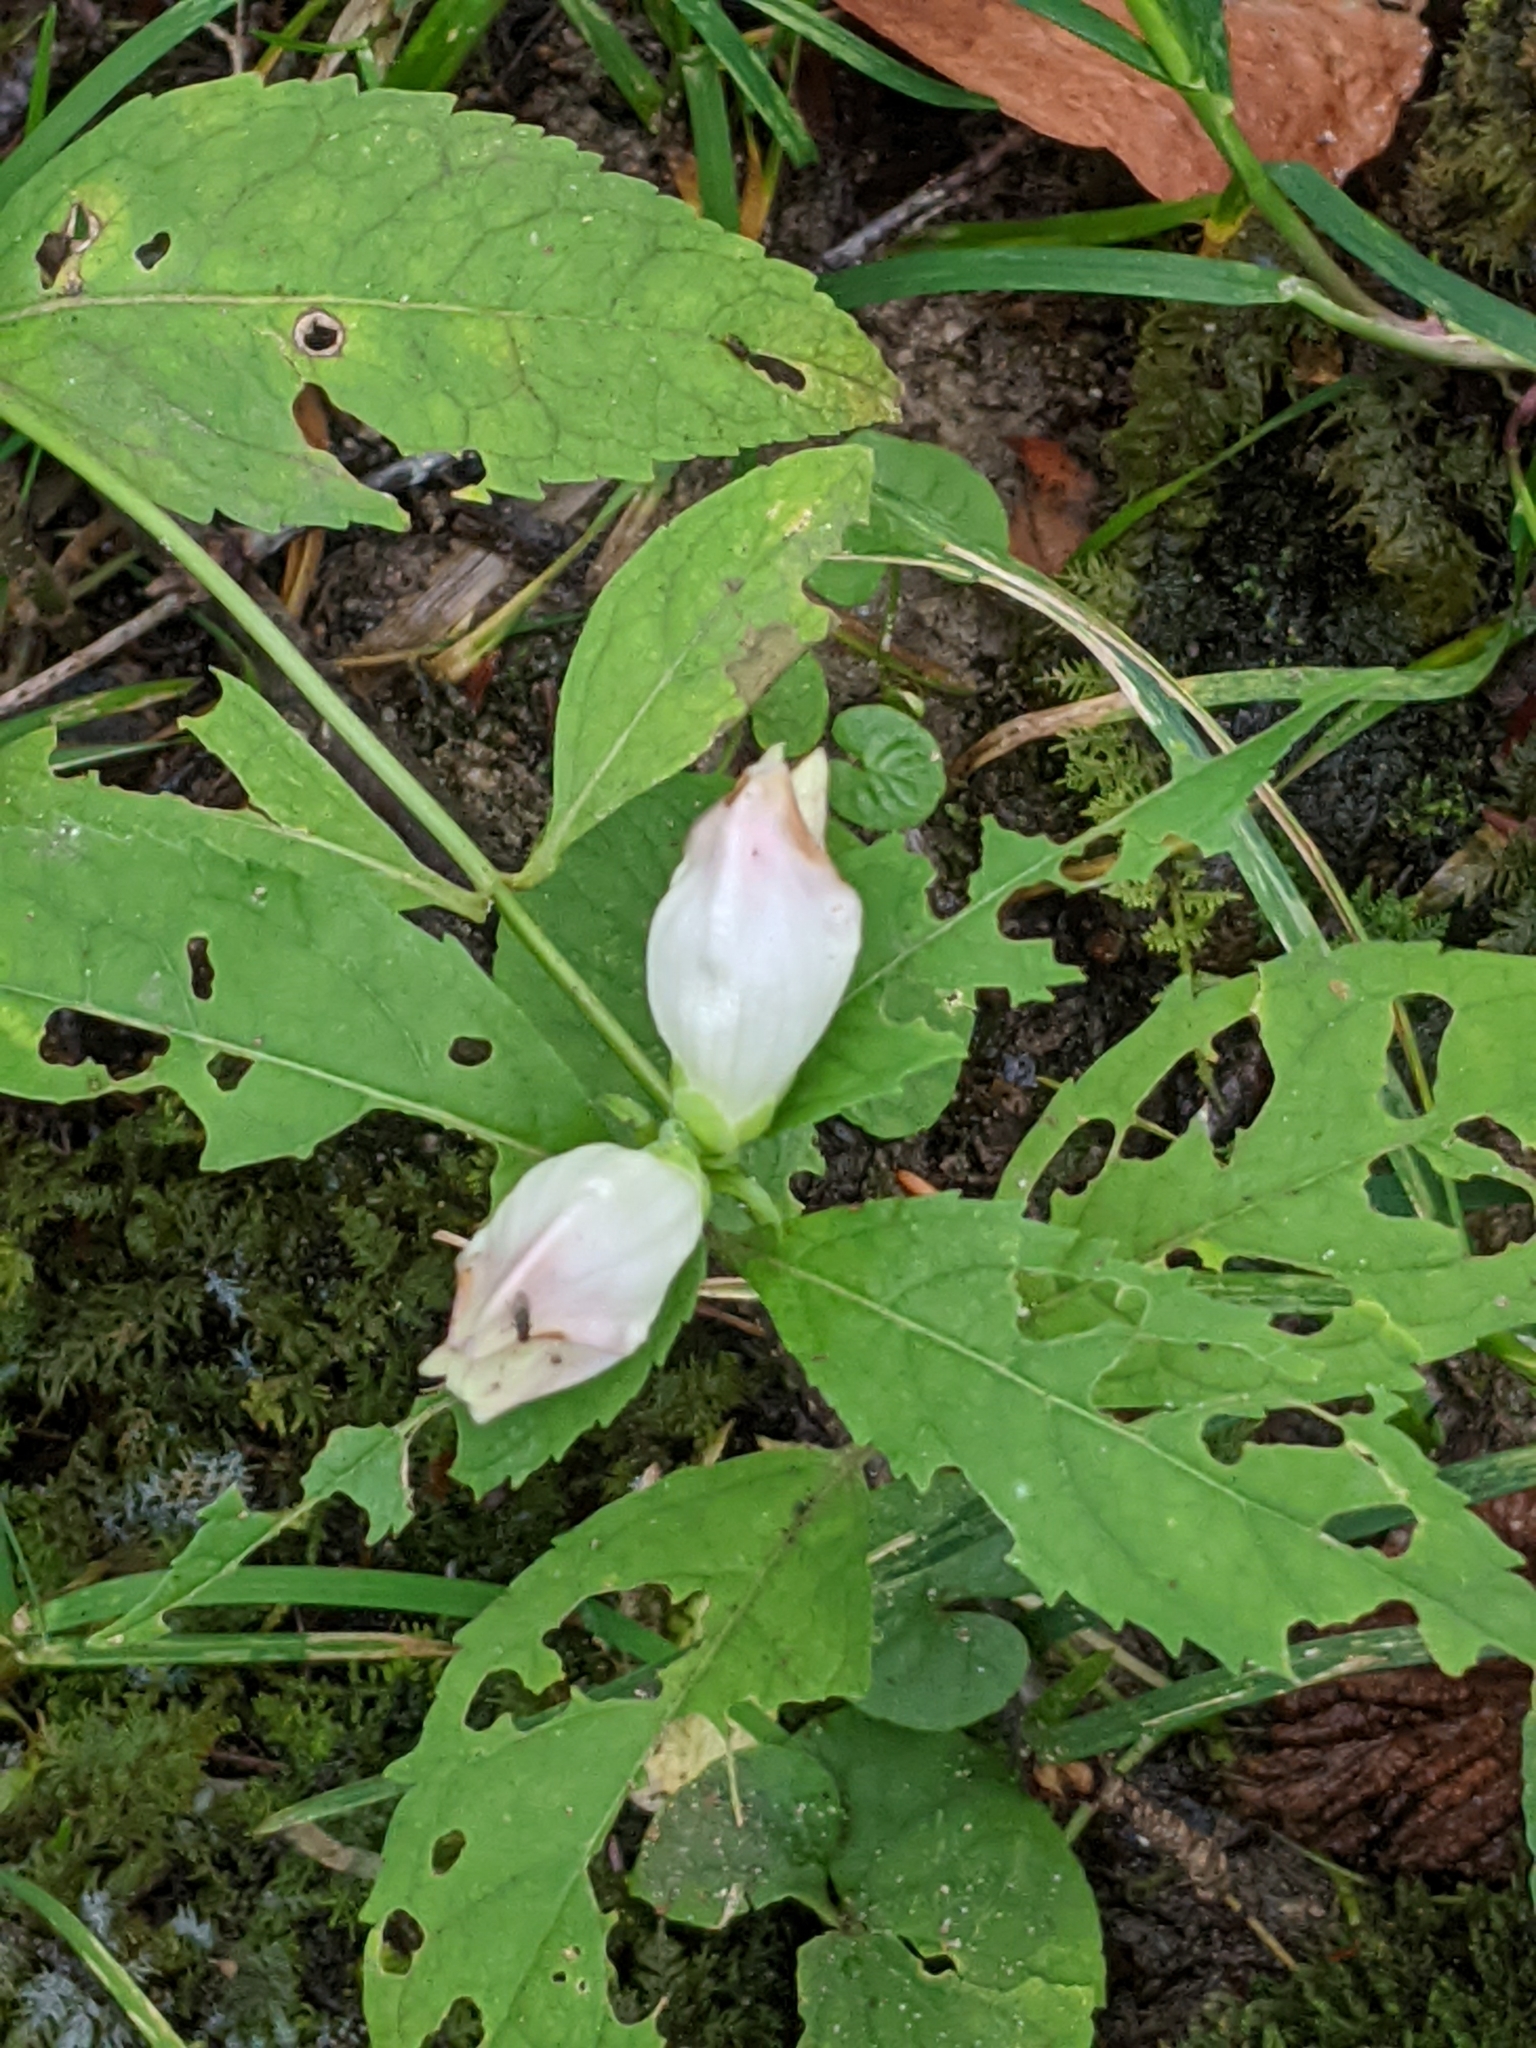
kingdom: Plantae
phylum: Tracheophyta
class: Magnoliopsida
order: Lamiales
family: Plantaginaceae
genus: Chelone
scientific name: Chelone glabra
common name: Snakehead
